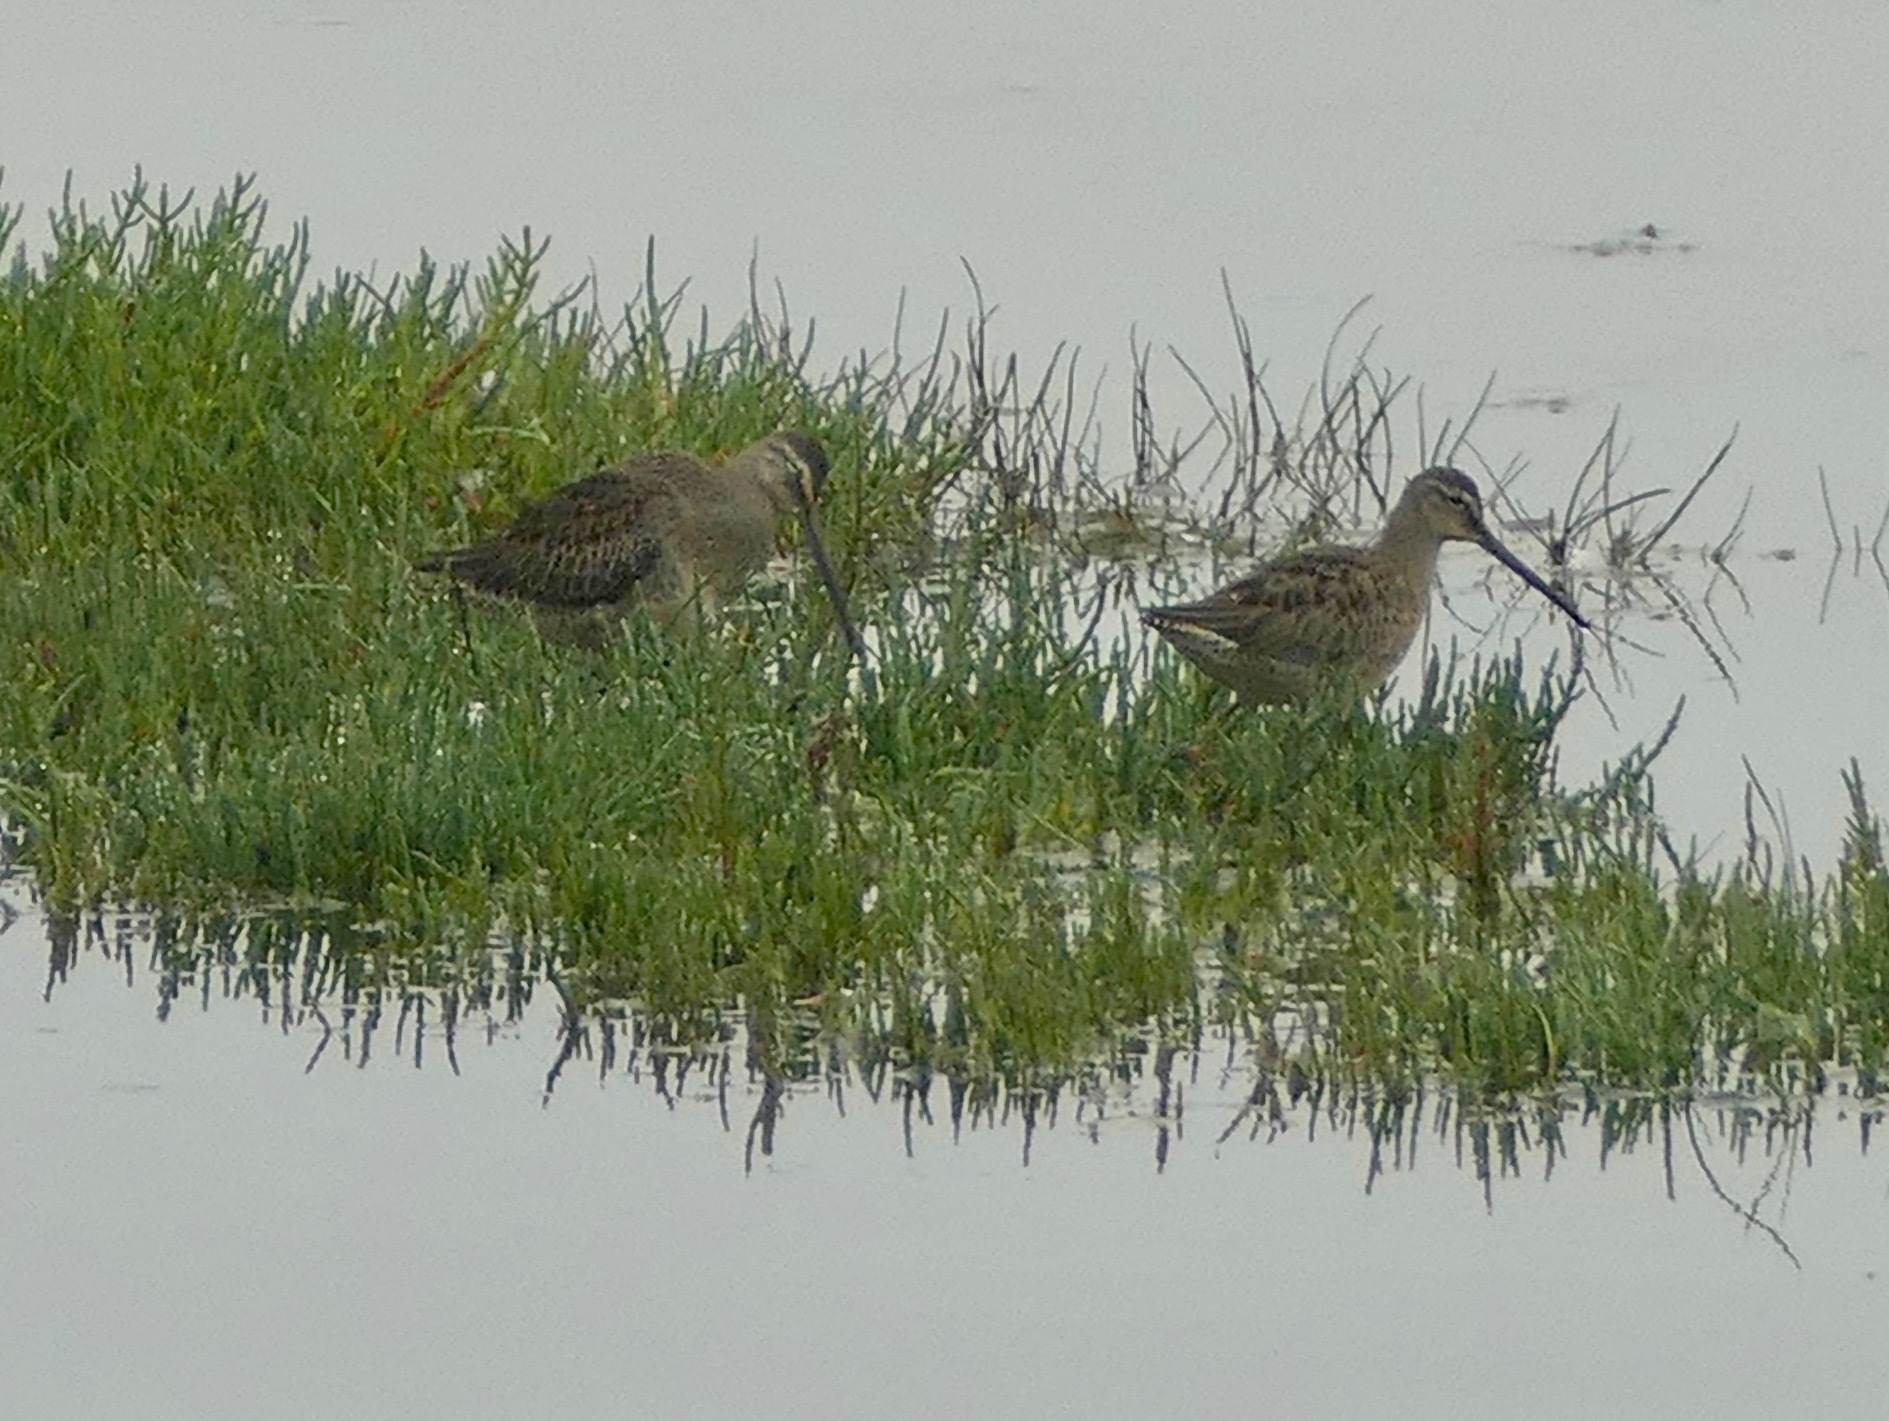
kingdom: Animalia
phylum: Chordata
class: Aves
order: Charadriiformes
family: Scolopacidae
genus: Limnodromus
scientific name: Limnodromus scolopaceus
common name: Long-billed dowitcher
